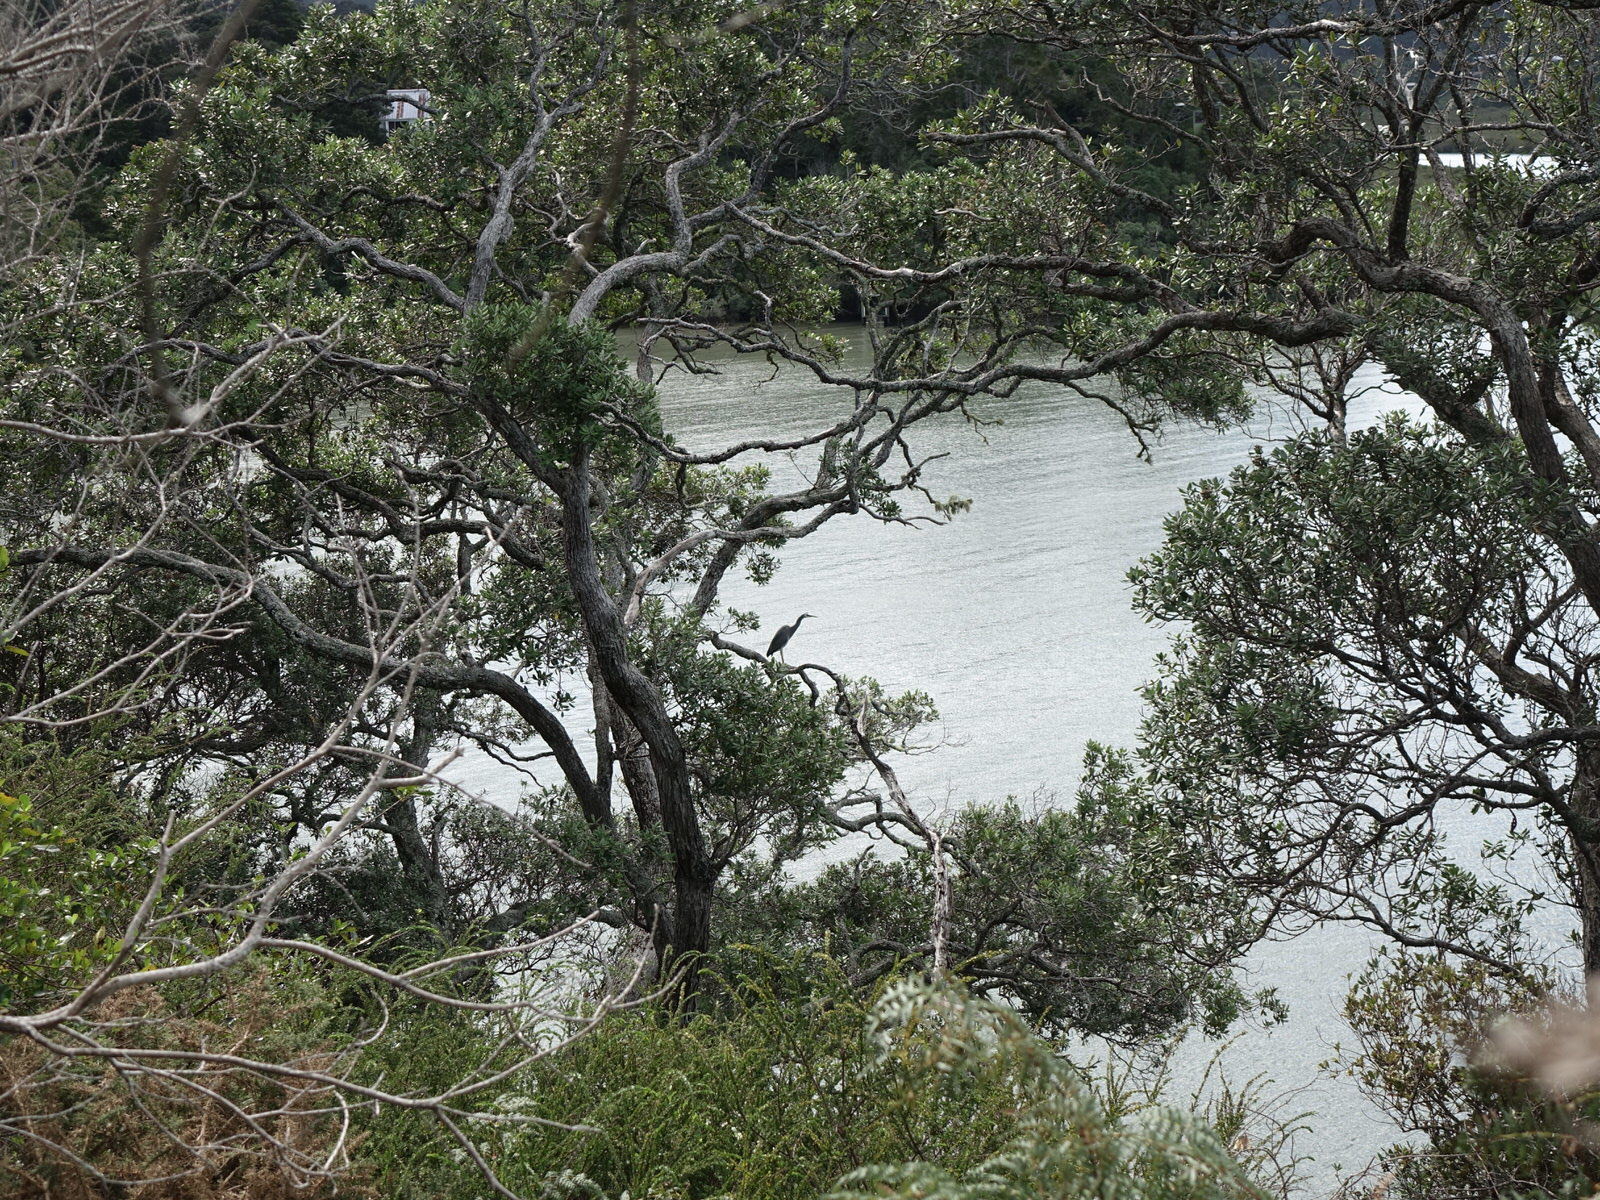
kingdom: Animalia
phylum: Chordata
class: Aves
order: Pelecaniformes
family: Ardeidae
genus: Egretta
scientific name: Egretta novaehollandiae
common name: White-faced heron
